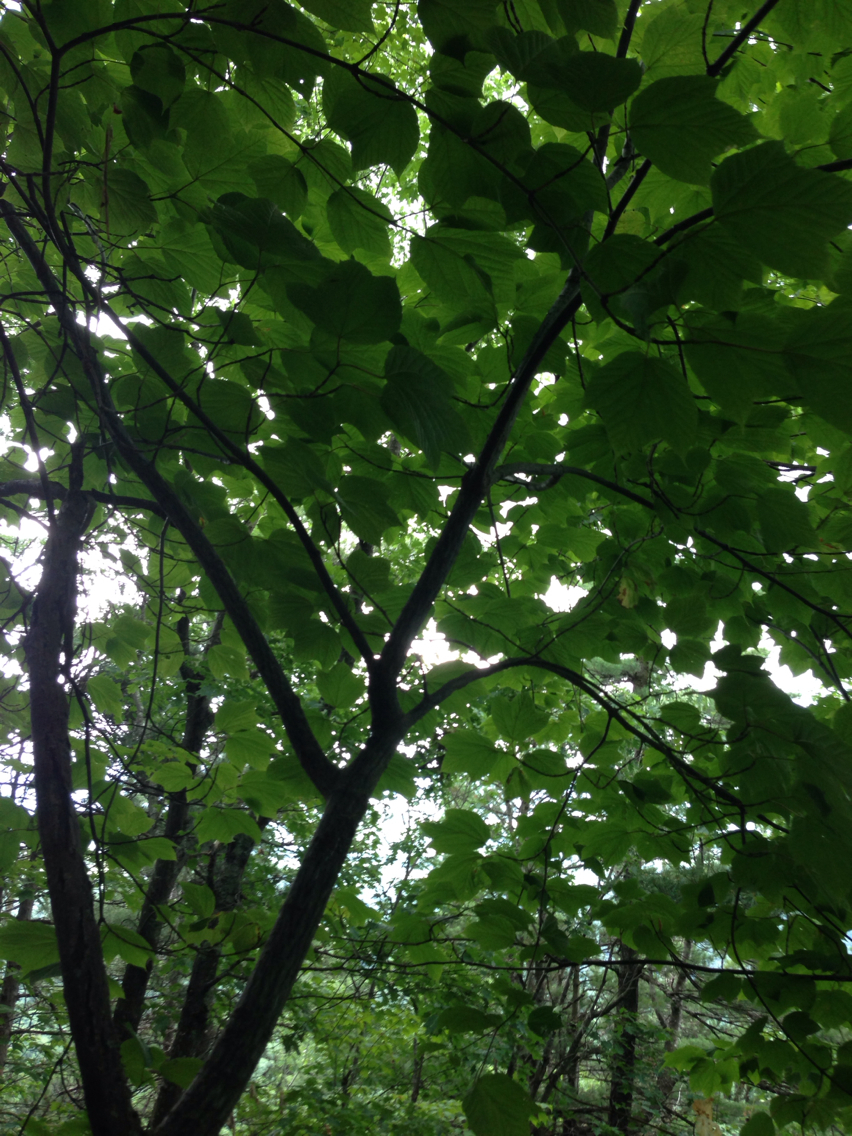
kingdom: Plantae
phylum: Tracheophyta
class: Magnoliopsida
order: Sapindales
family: Sapindaceae
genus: Acer
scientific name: Acer pensylvanicum
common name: Moosewood
